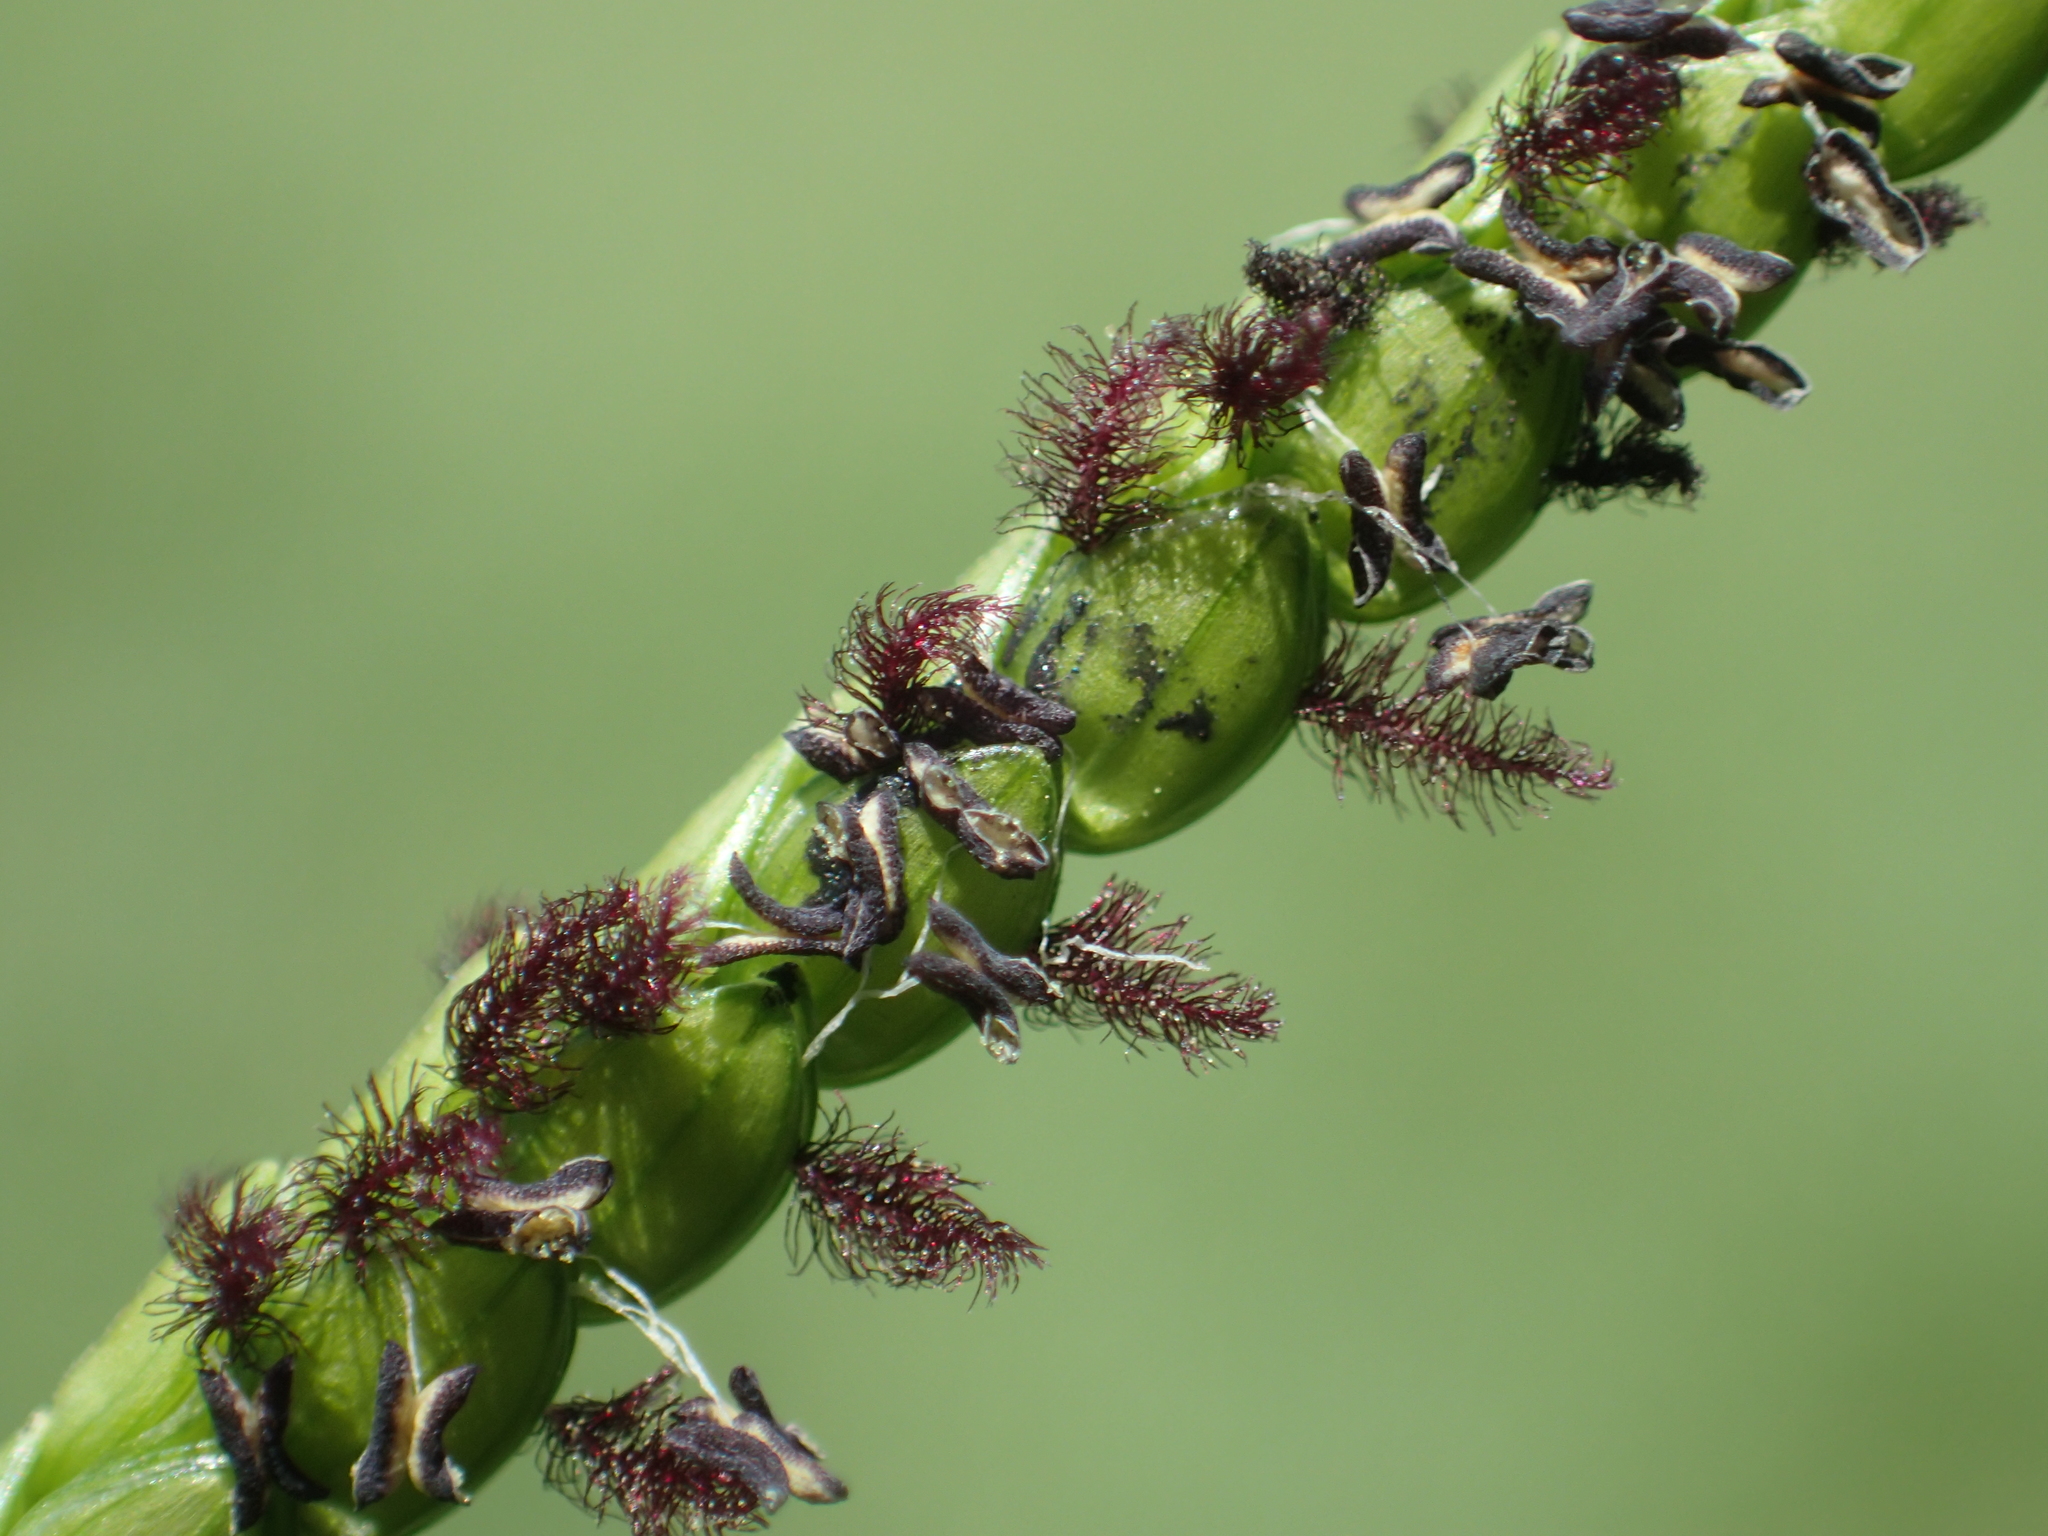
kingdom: Plantae
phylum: Tracheophyta
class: Liliopsida
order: Poales
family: Poaceae
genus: Paspalum
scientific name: Paspalum notatum
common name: Bahiagrass
